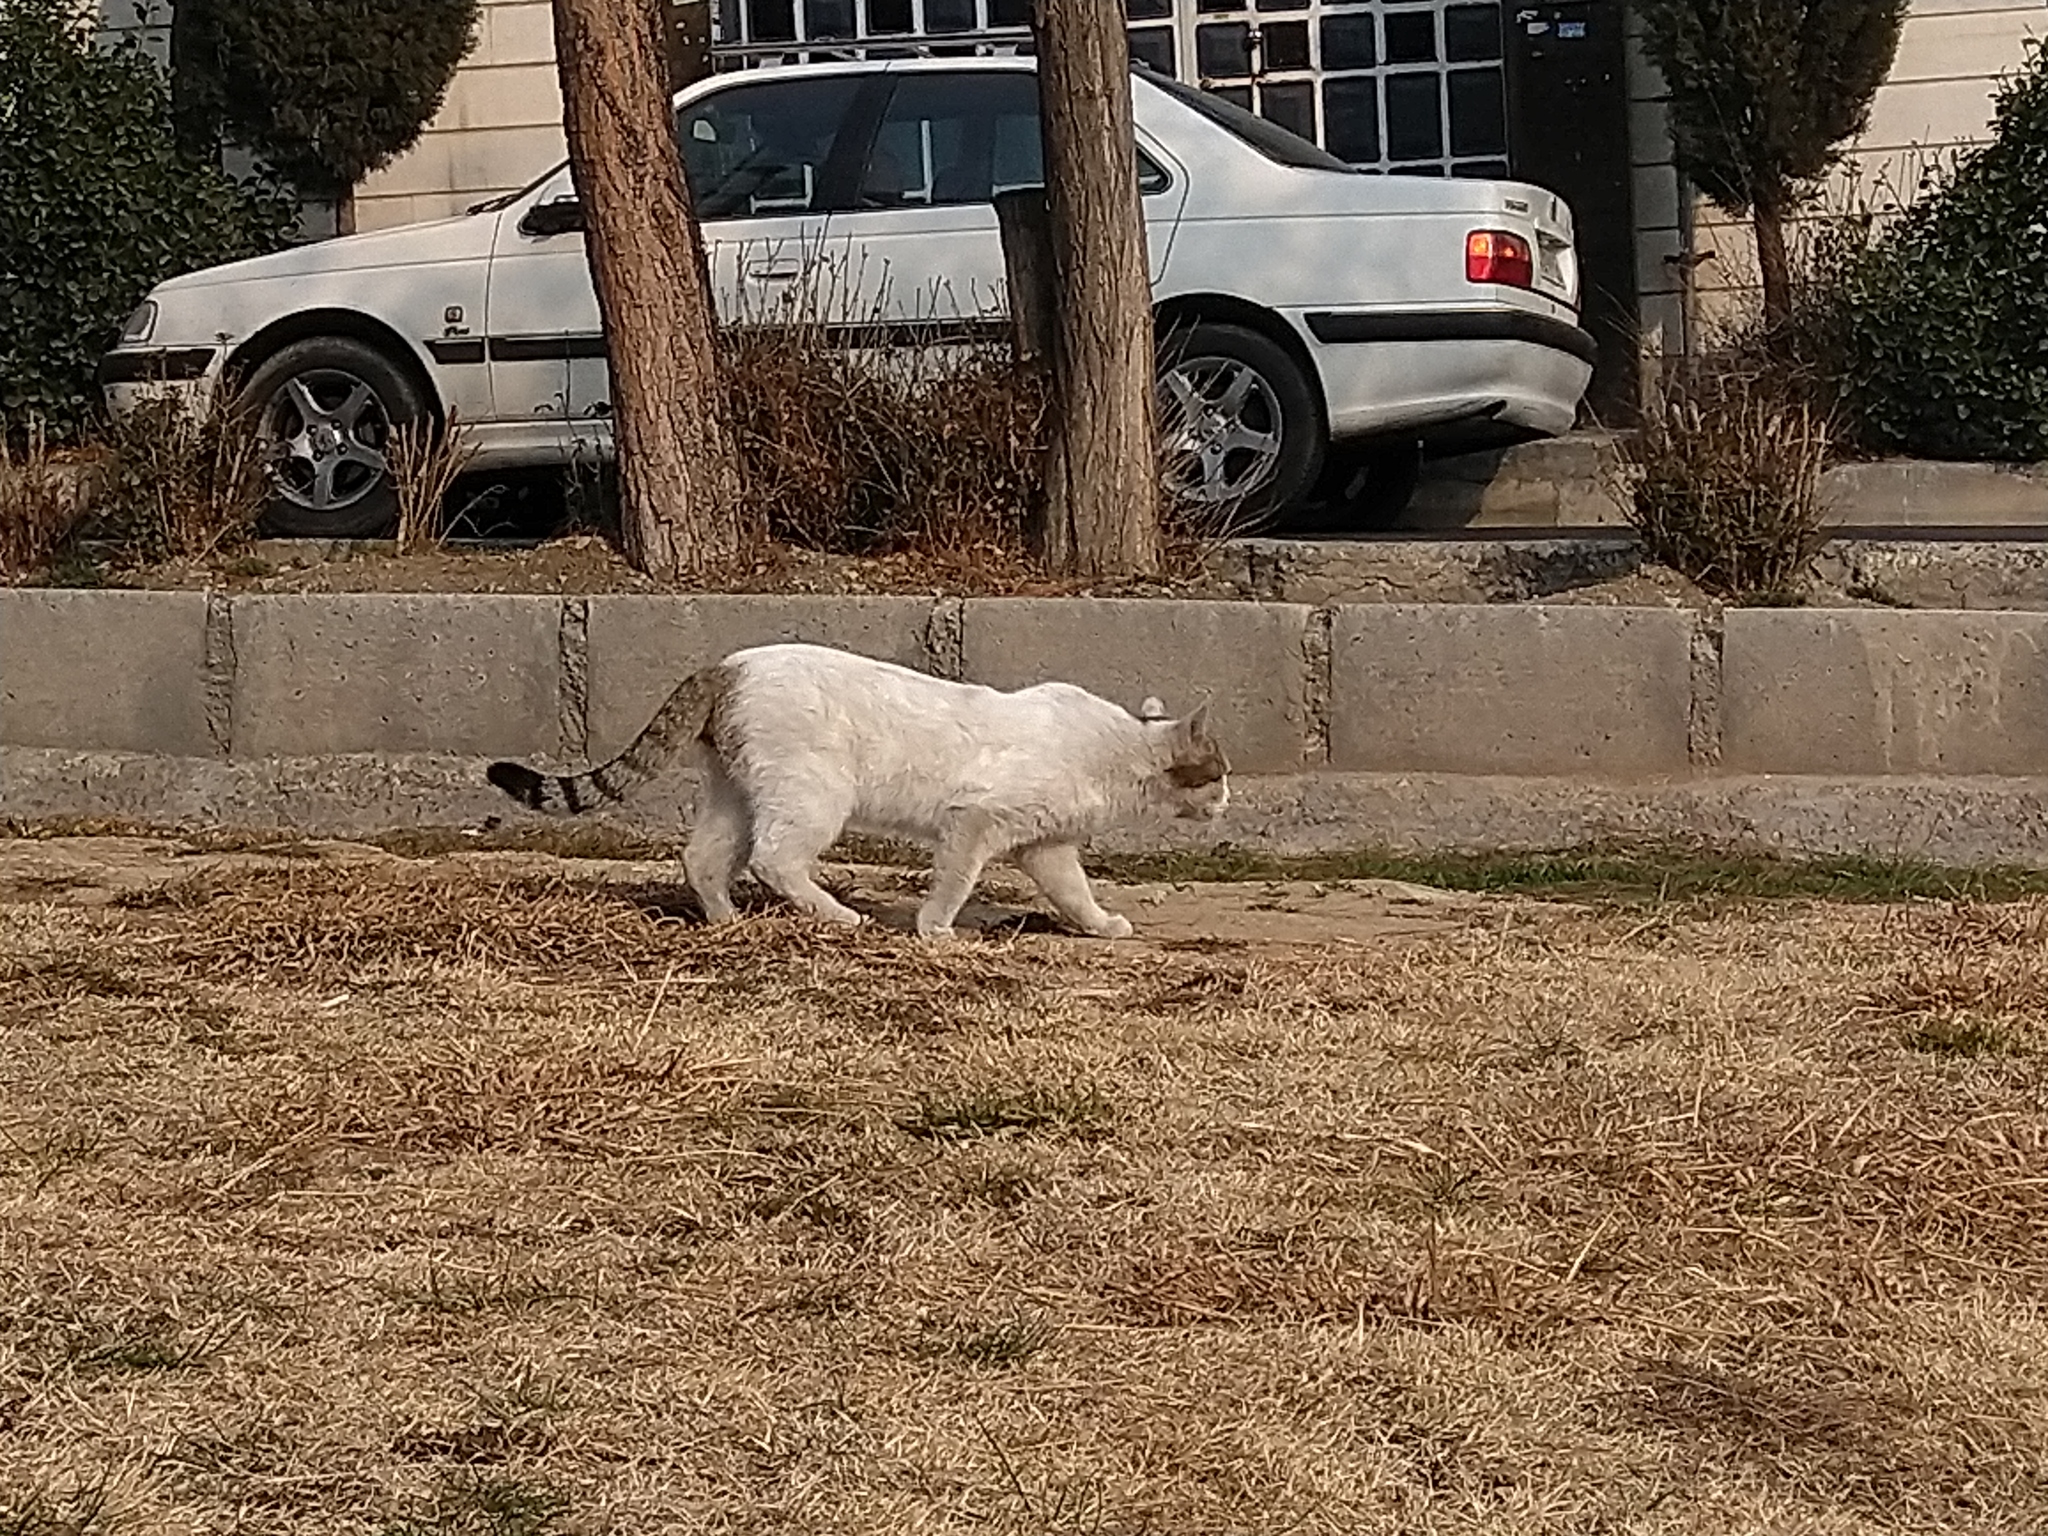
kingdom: Animalia
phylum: Chordata
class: Mammalia
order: Carnivora
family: Felidae
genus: Felis
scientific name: Felis catus
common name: Domestic cat
